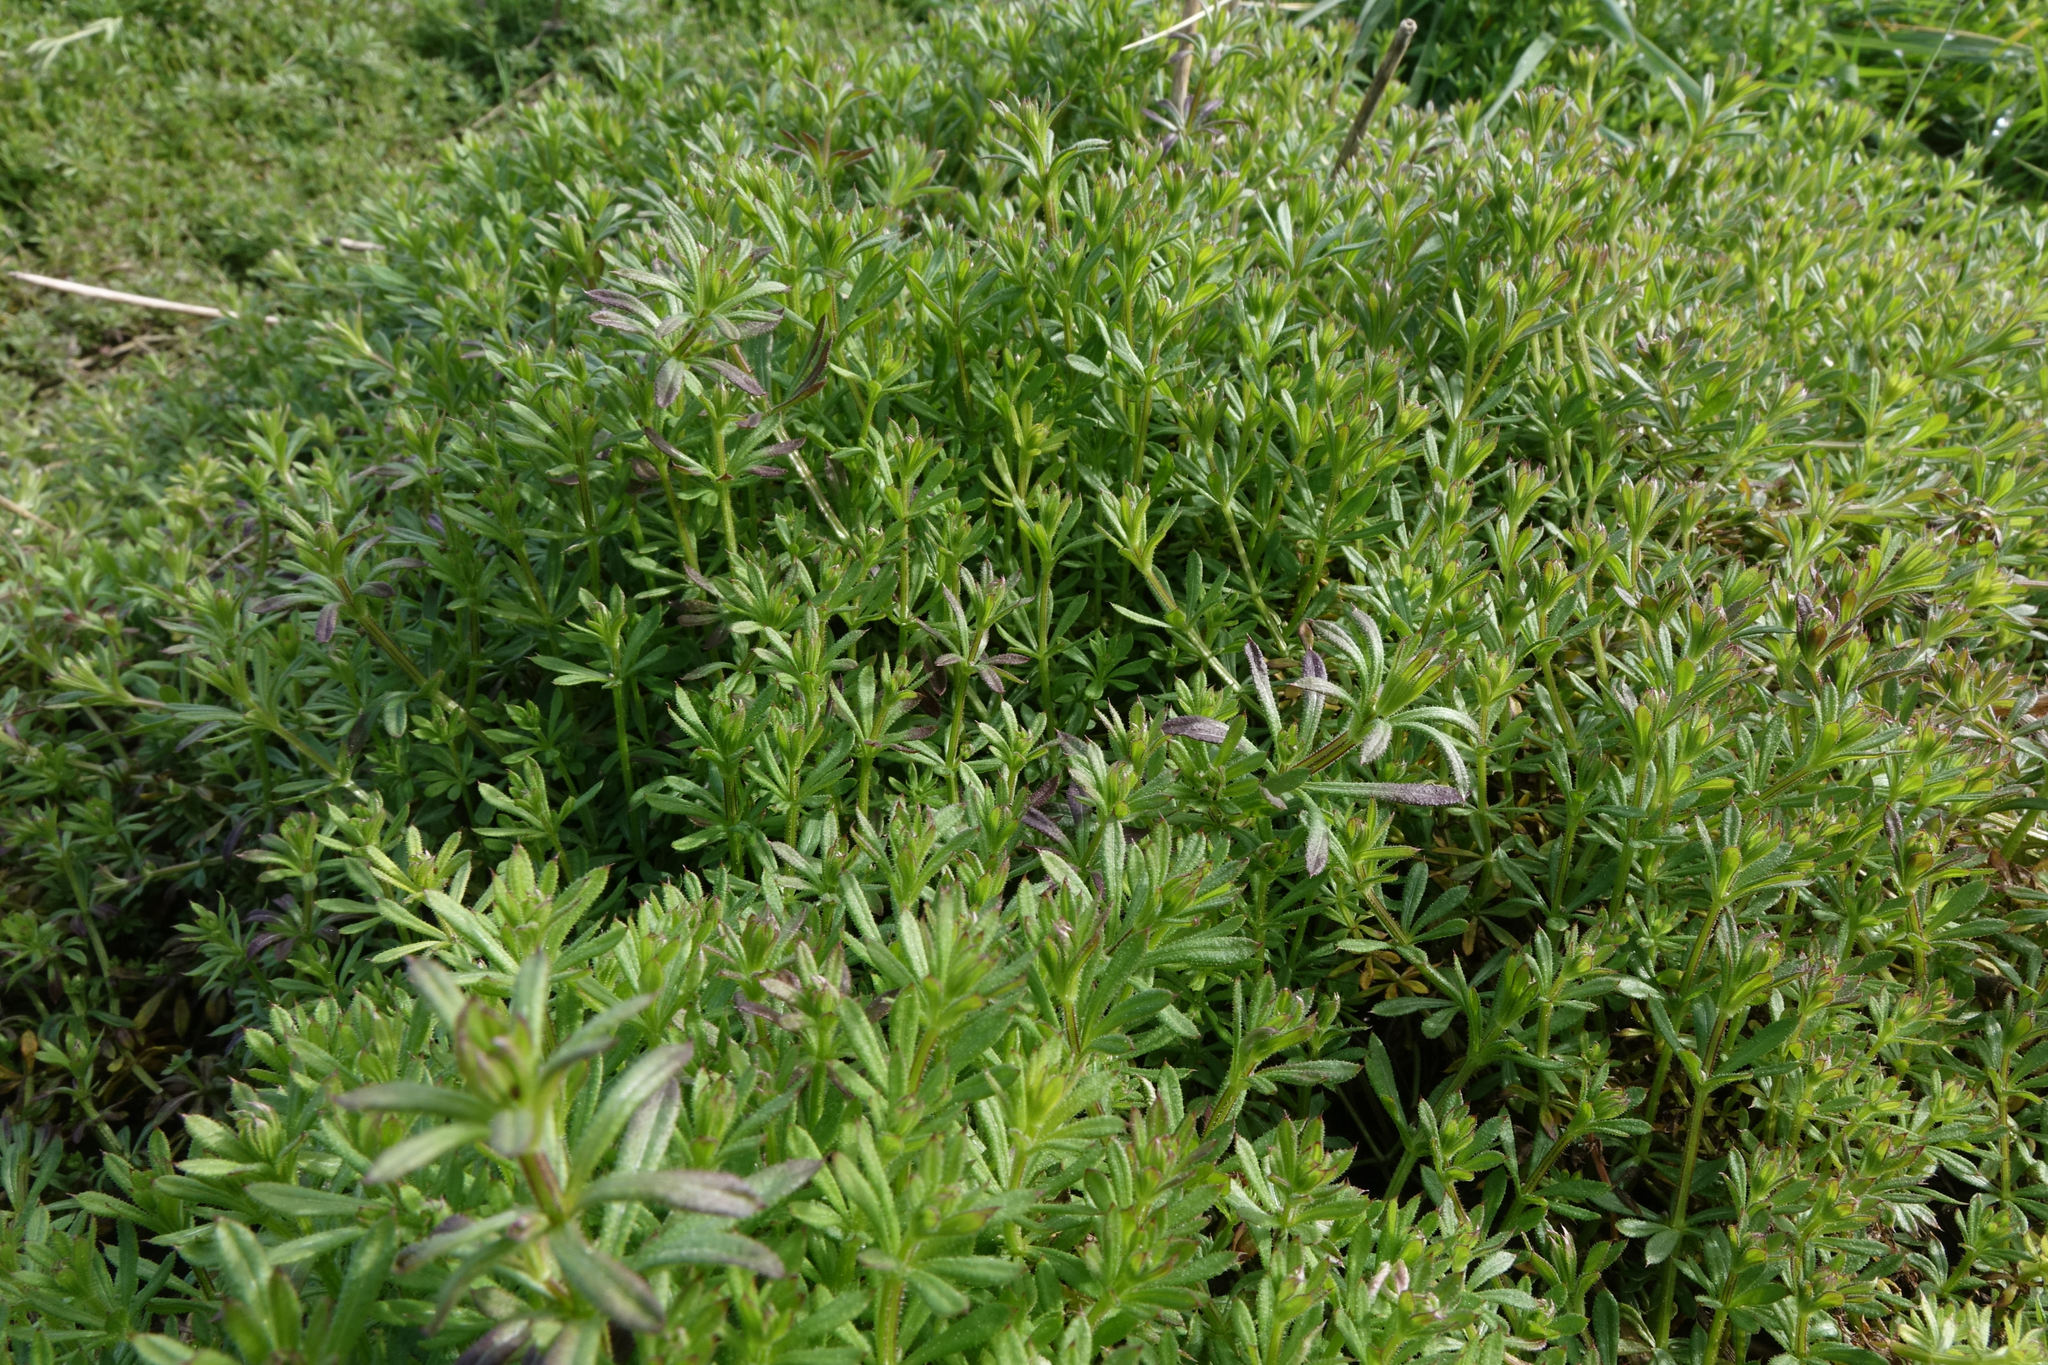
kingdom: Plantae
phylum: Tracheophyta
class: Magnoliopsida
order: Gentianales
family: Rubiaceae
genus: Galium
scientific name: Galium aparine
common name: Cleavers
